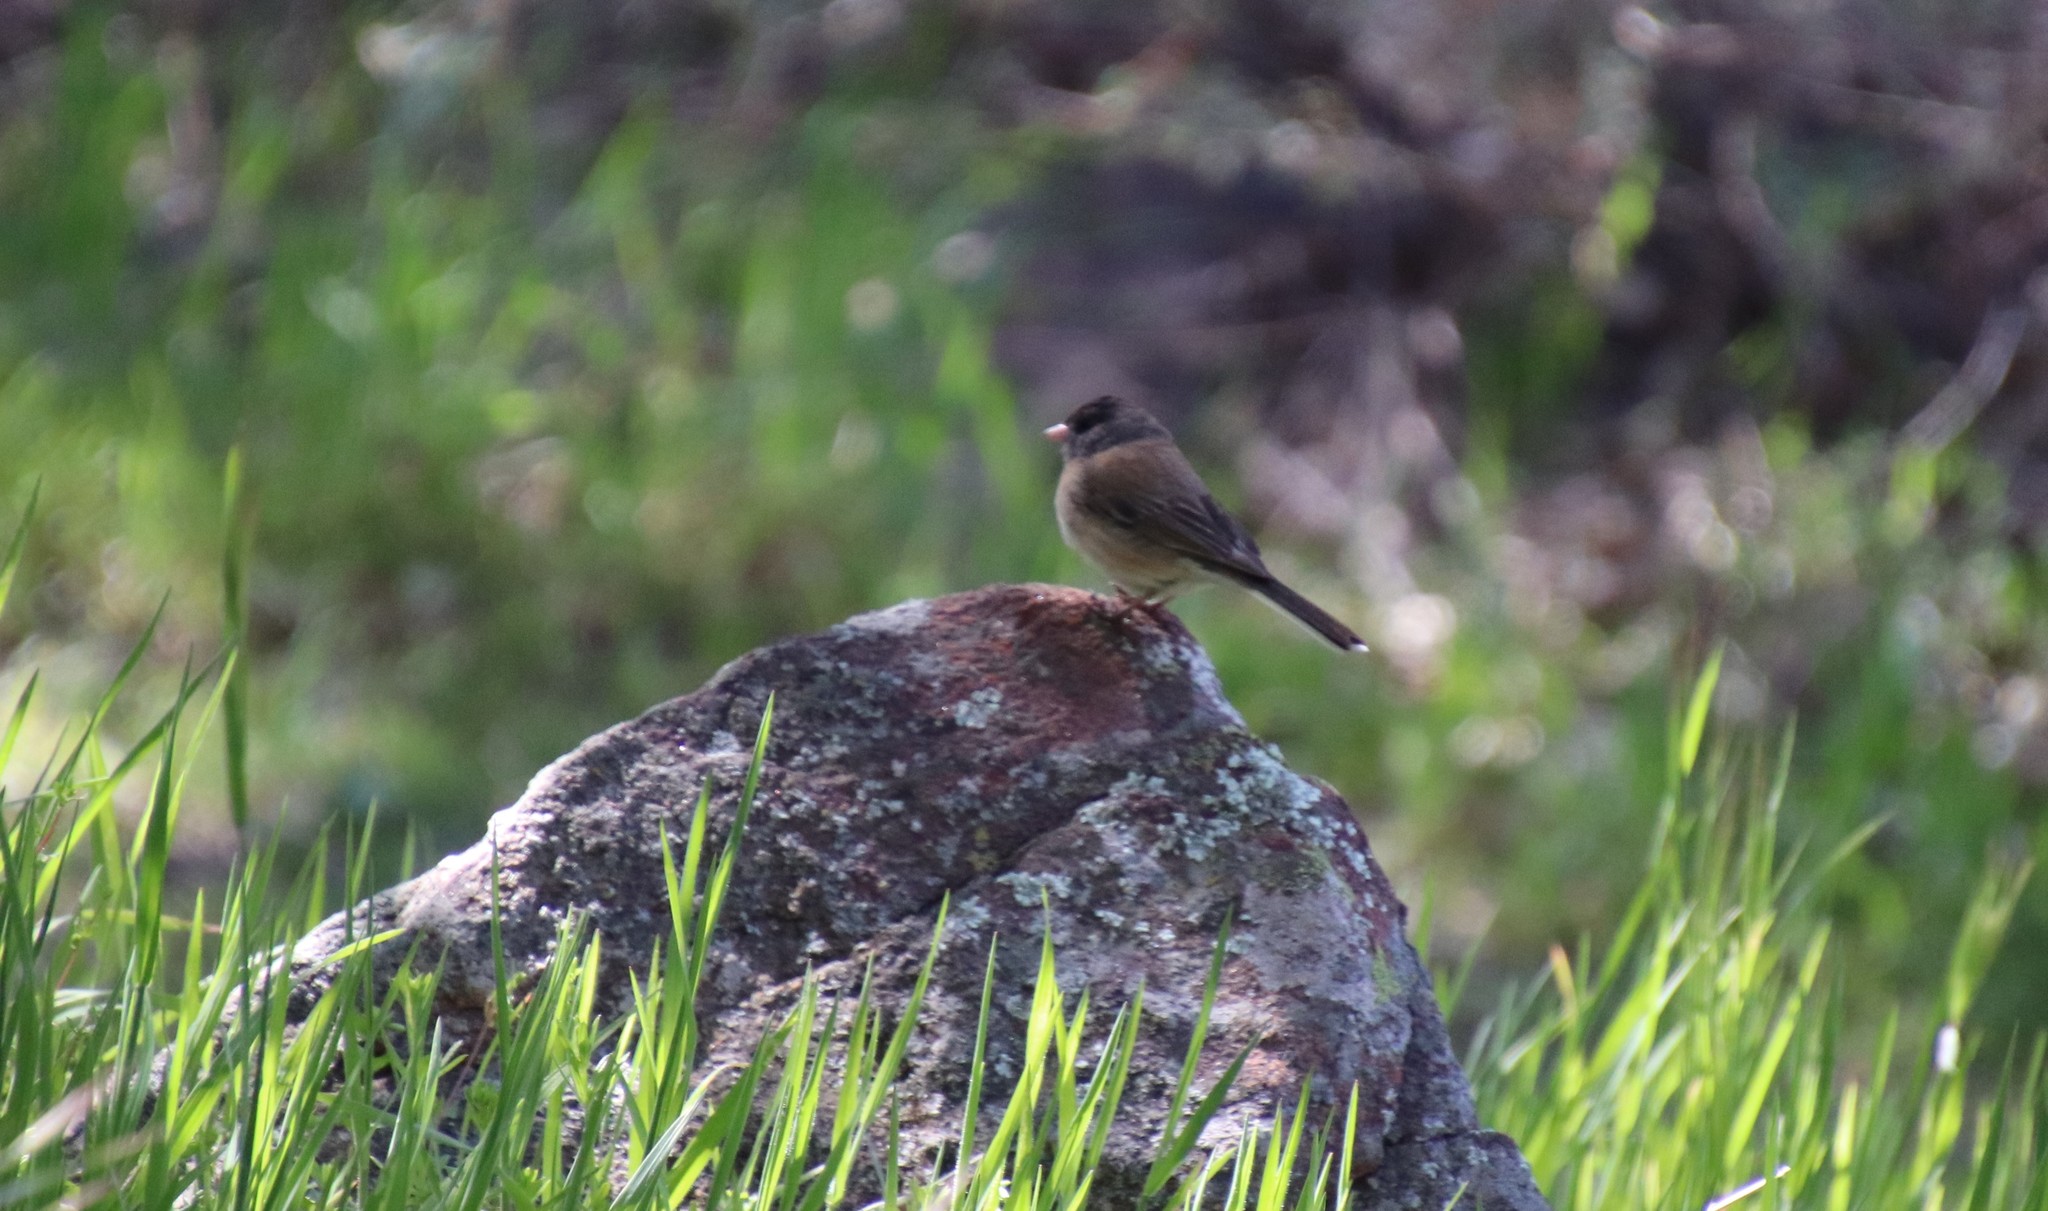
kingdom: Animalia
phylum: Chordata
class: Aves
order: Passeriformes
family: Passerellidae
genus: Junco
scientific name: Junco hyemalis
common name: Dark-eyed junco
